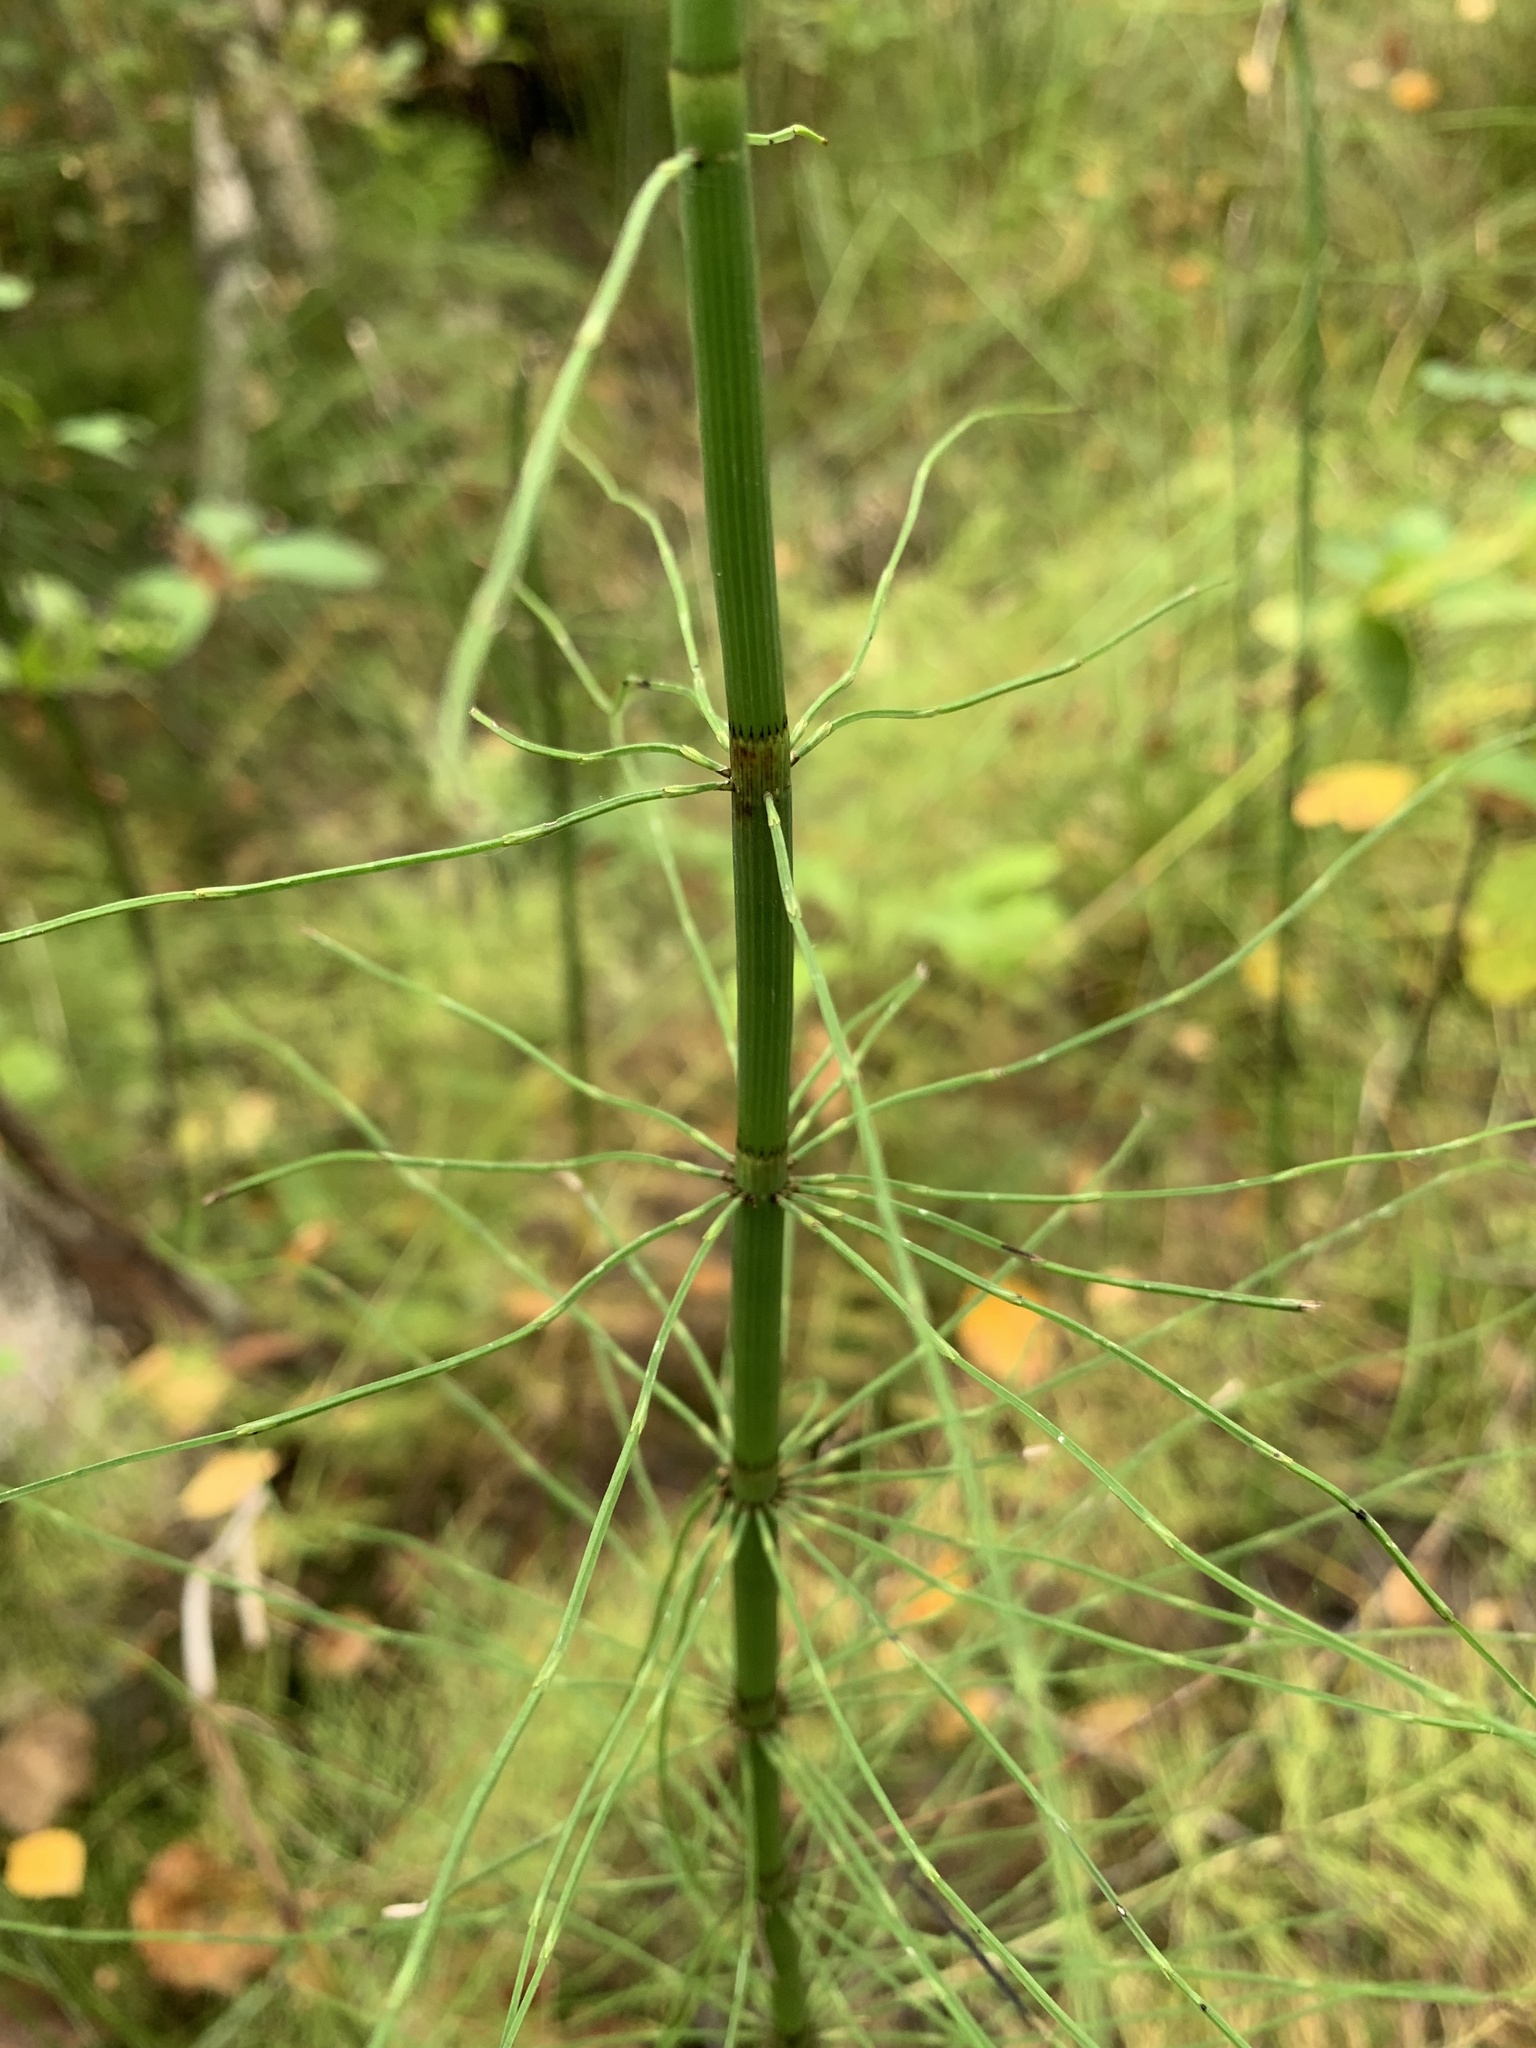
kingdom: Plantae
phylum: Tracheophyta
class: Polypodiopsida
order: Equisetales
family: Equisetaceae
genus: Equisetum
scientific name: Equisetum fluviatile
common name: Water horsetail
